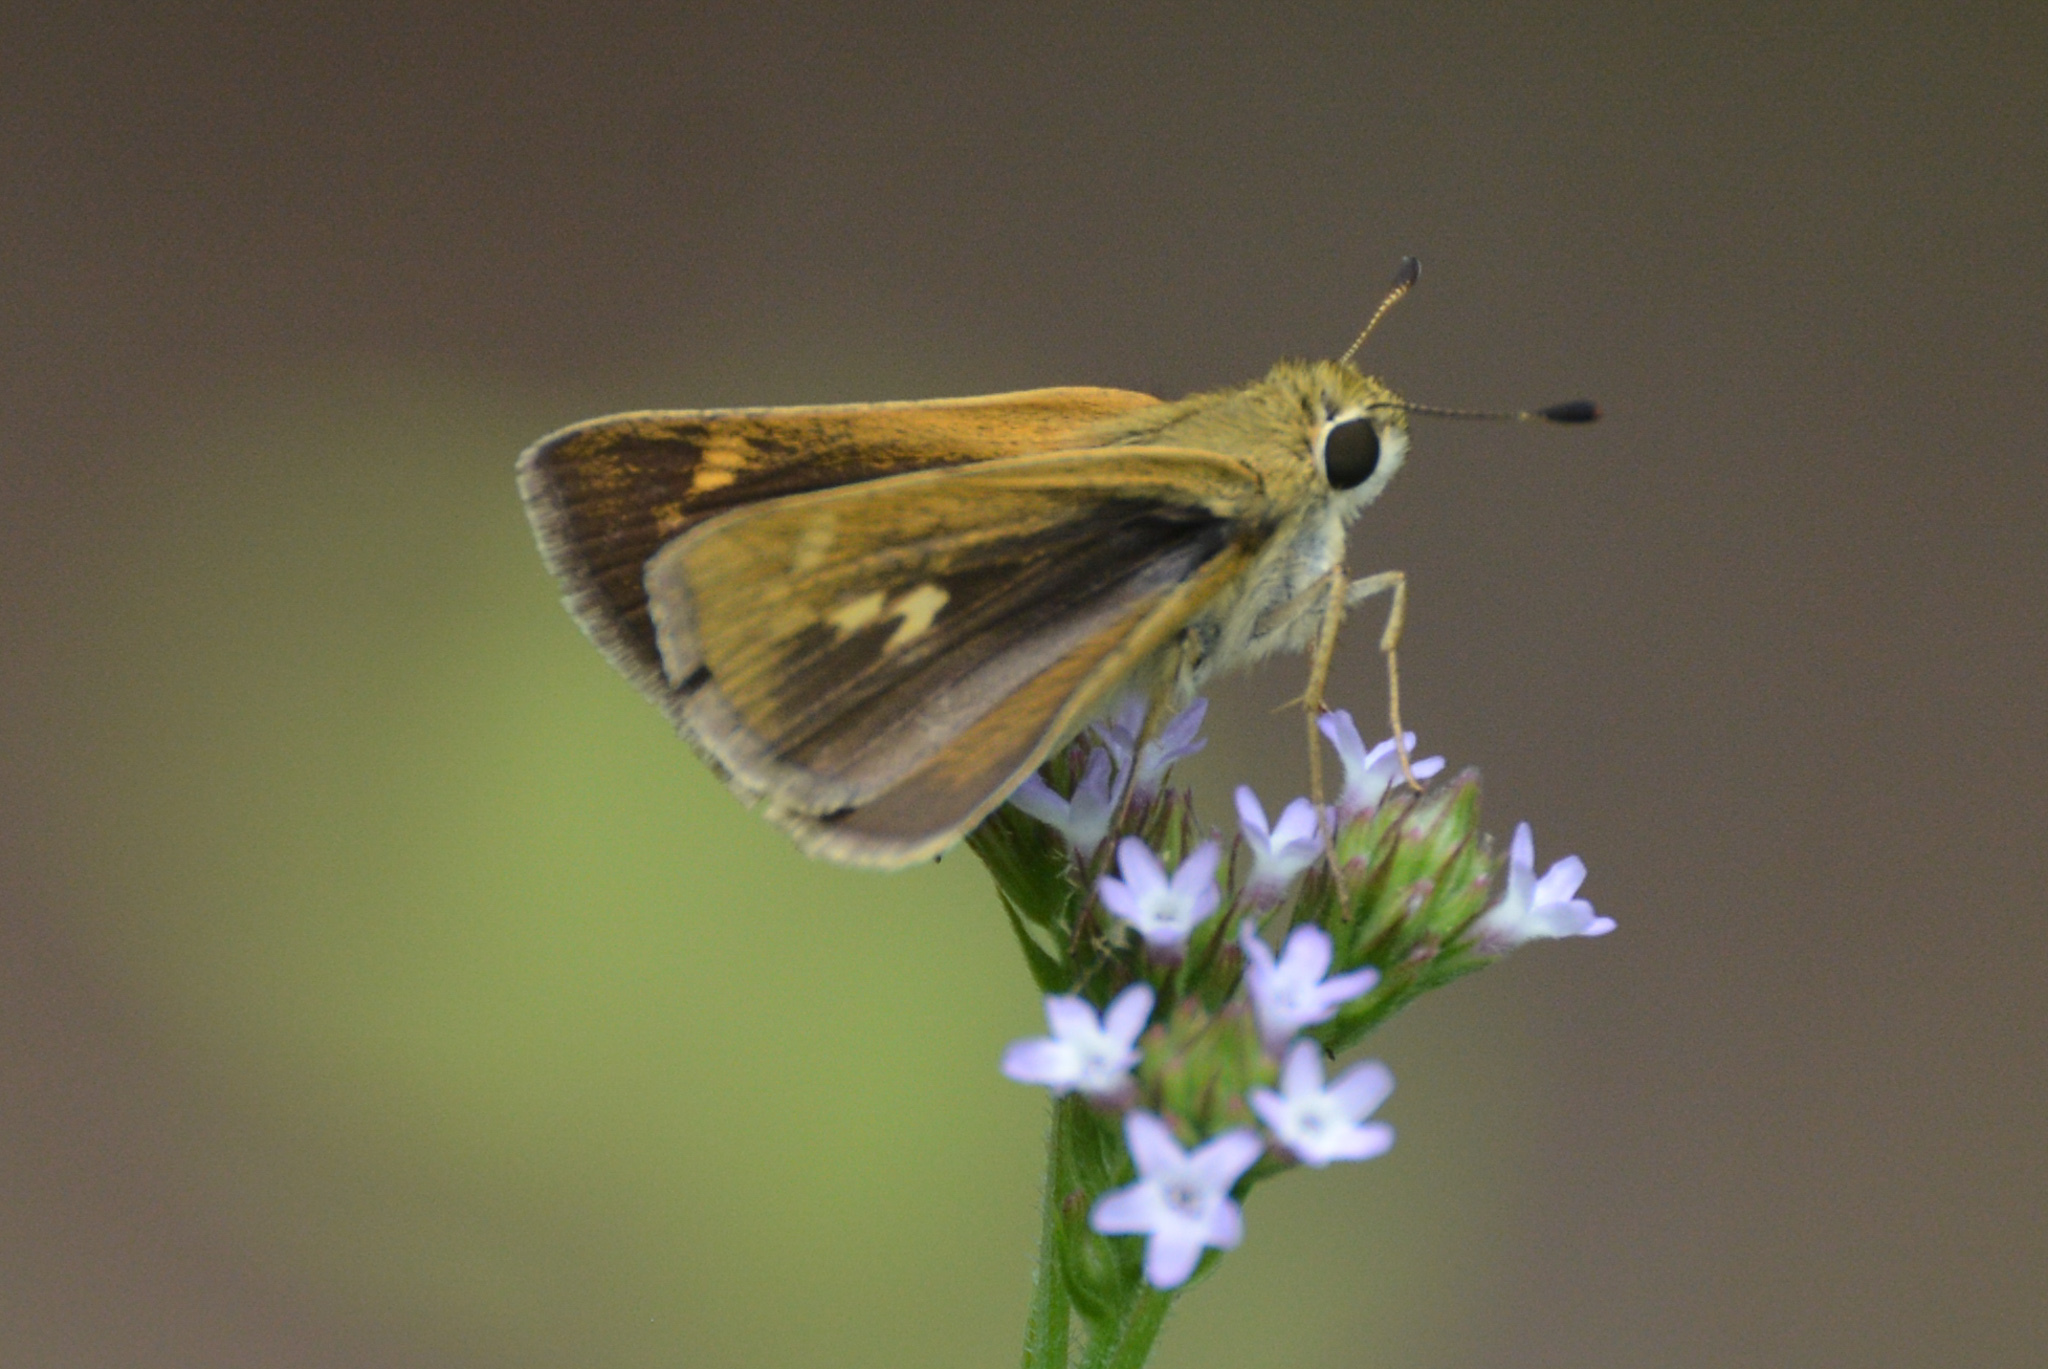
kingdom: Animalia
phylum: Arthropoda
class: Insecta
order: Lepidoptera
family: Hesperiidae
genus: Polites
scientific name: Polites vibex
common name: Whirlabout
